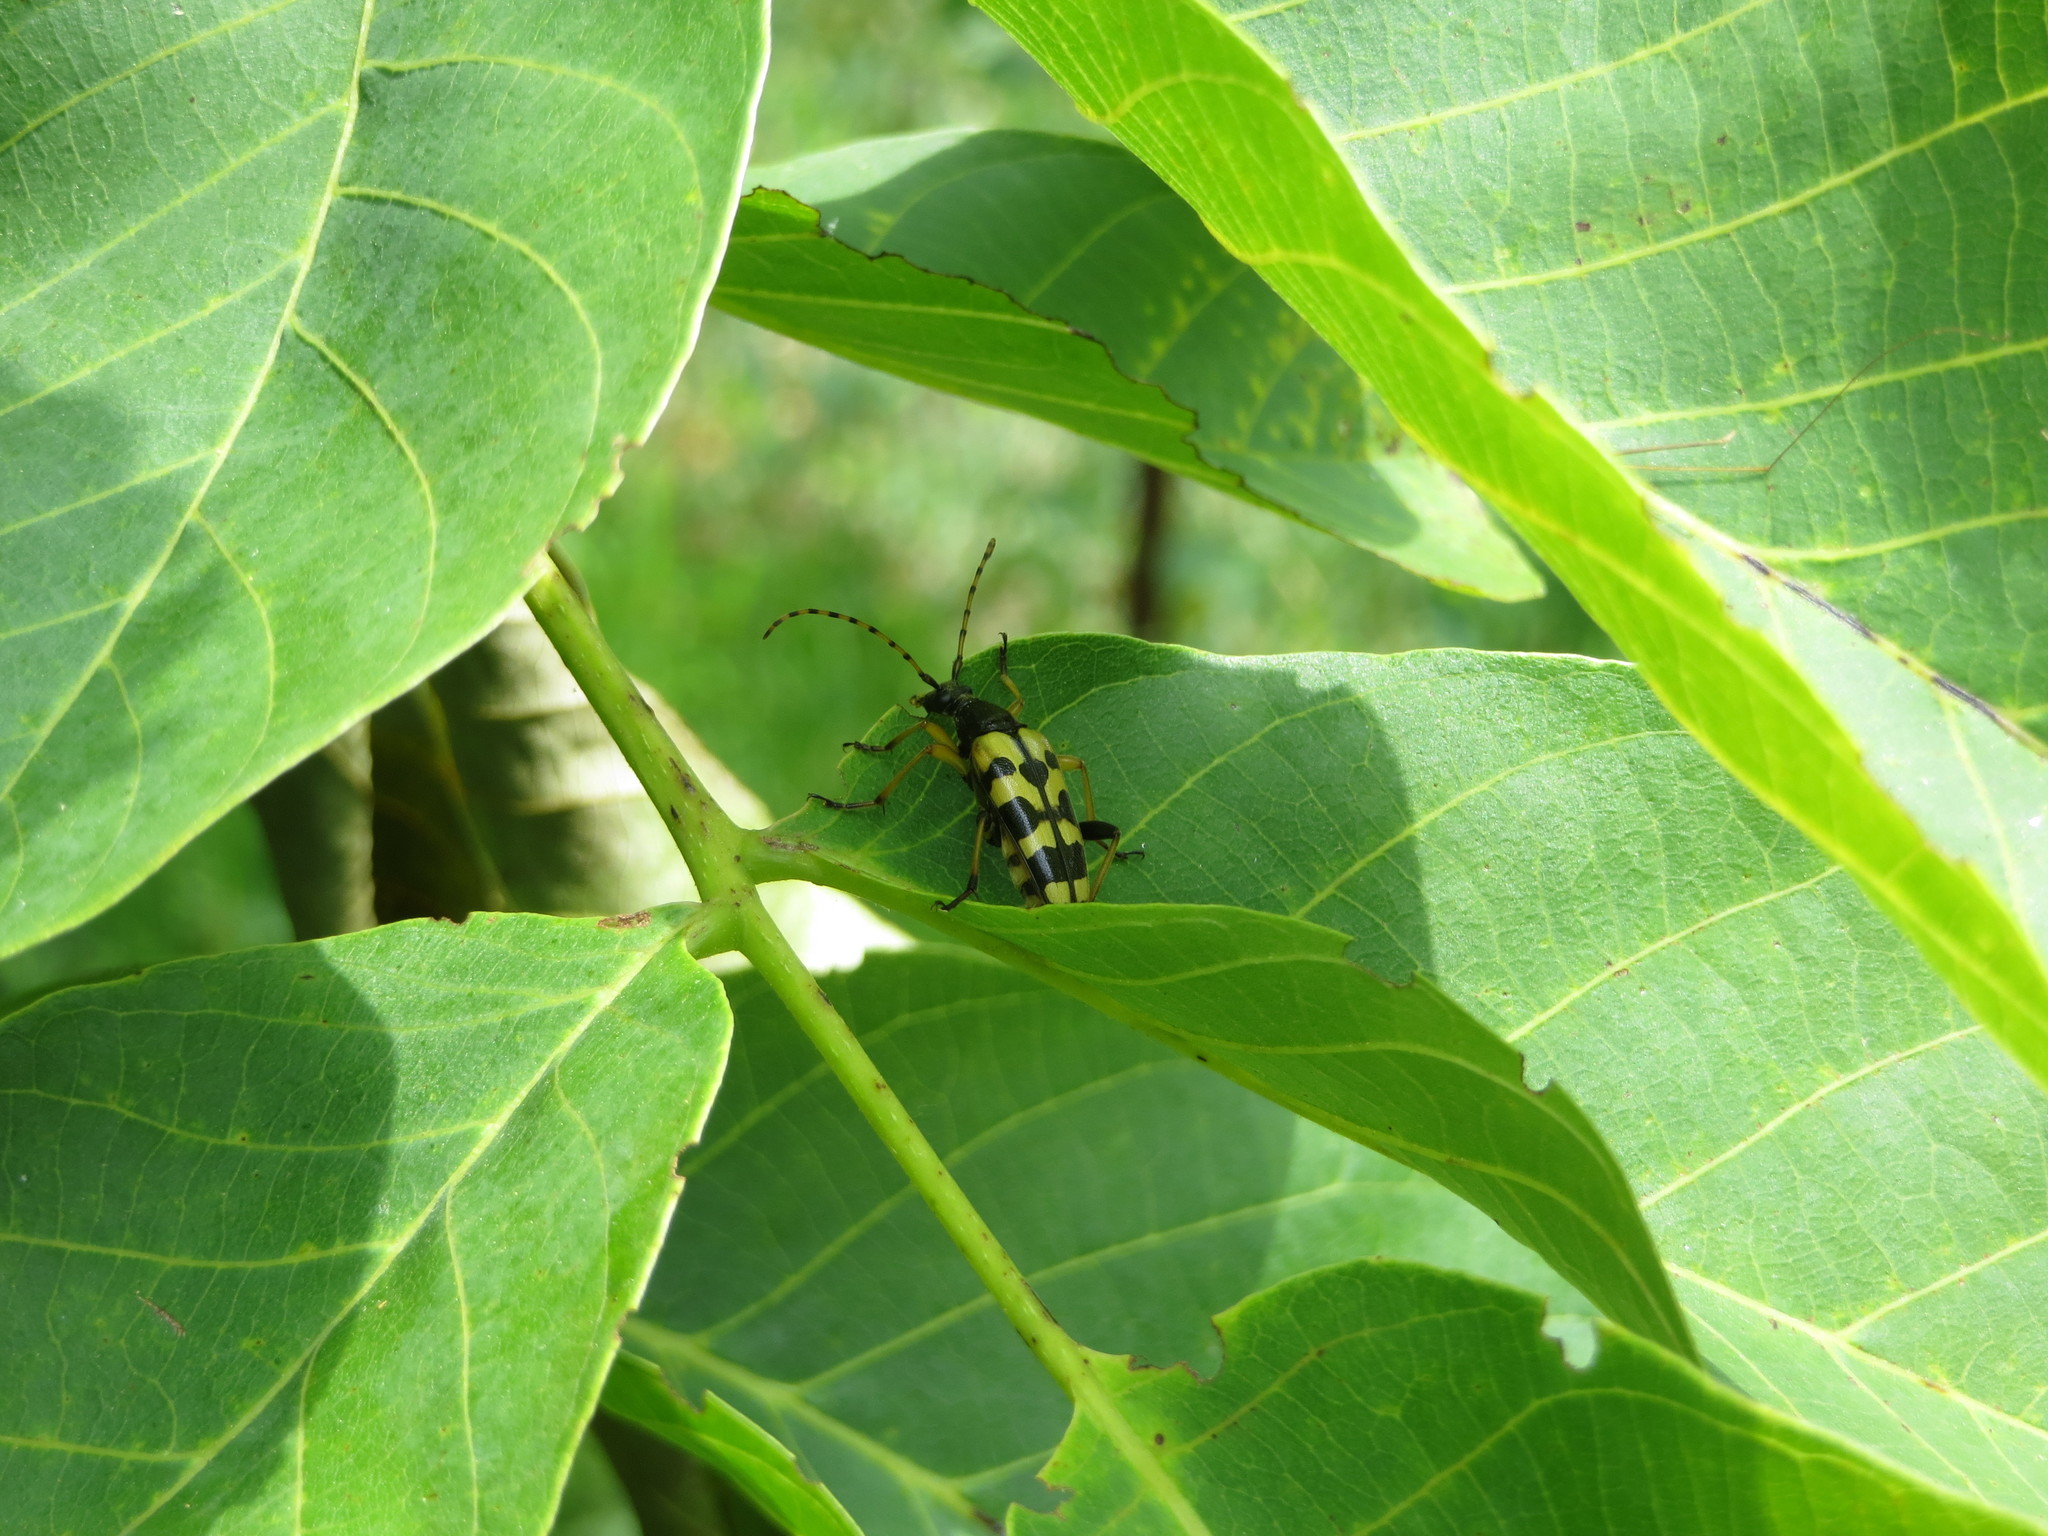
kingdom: Animalia
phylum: Arthropoda
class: Insecta
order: Coleoptera
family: Cerambycidae
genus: Rutpela
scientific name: Rutpela maculata
